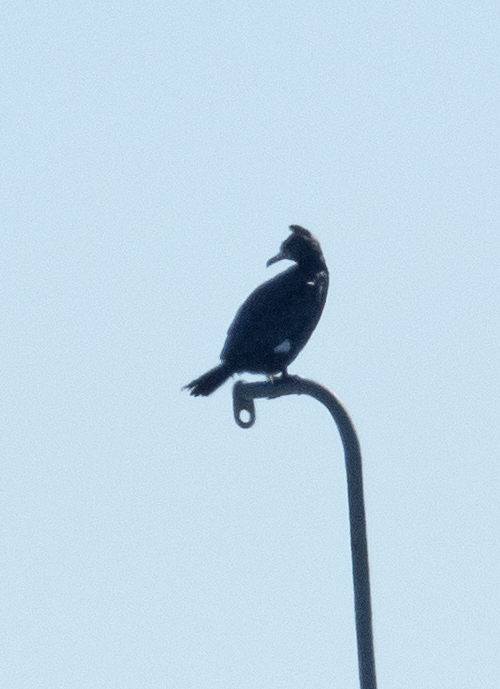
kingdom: Animalia
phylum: Chordata
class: Aves
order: Suliformes
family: Phalacrocoracidae
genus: Phalacrocorax
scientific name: Phalacrocorax carbo
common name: Great cormorant
